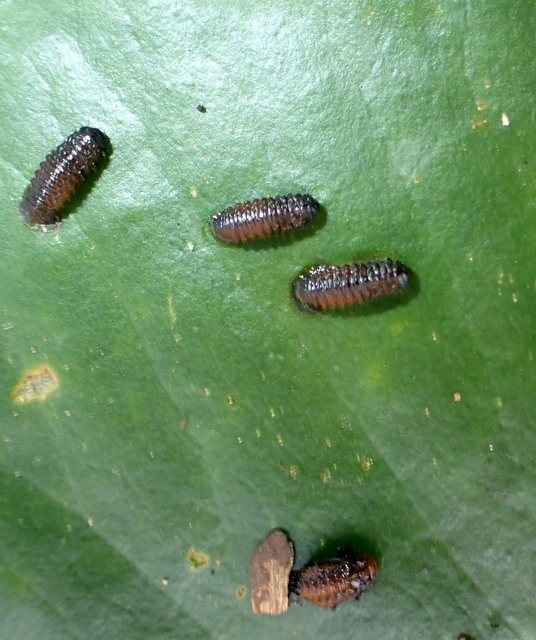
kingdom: Animalia
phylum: Arthropoda
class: Insecta
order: Coleoptera
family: Chrysomelidae
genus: Galerucella
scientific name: Galerucella nymphaeae
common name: Leaf beetle
